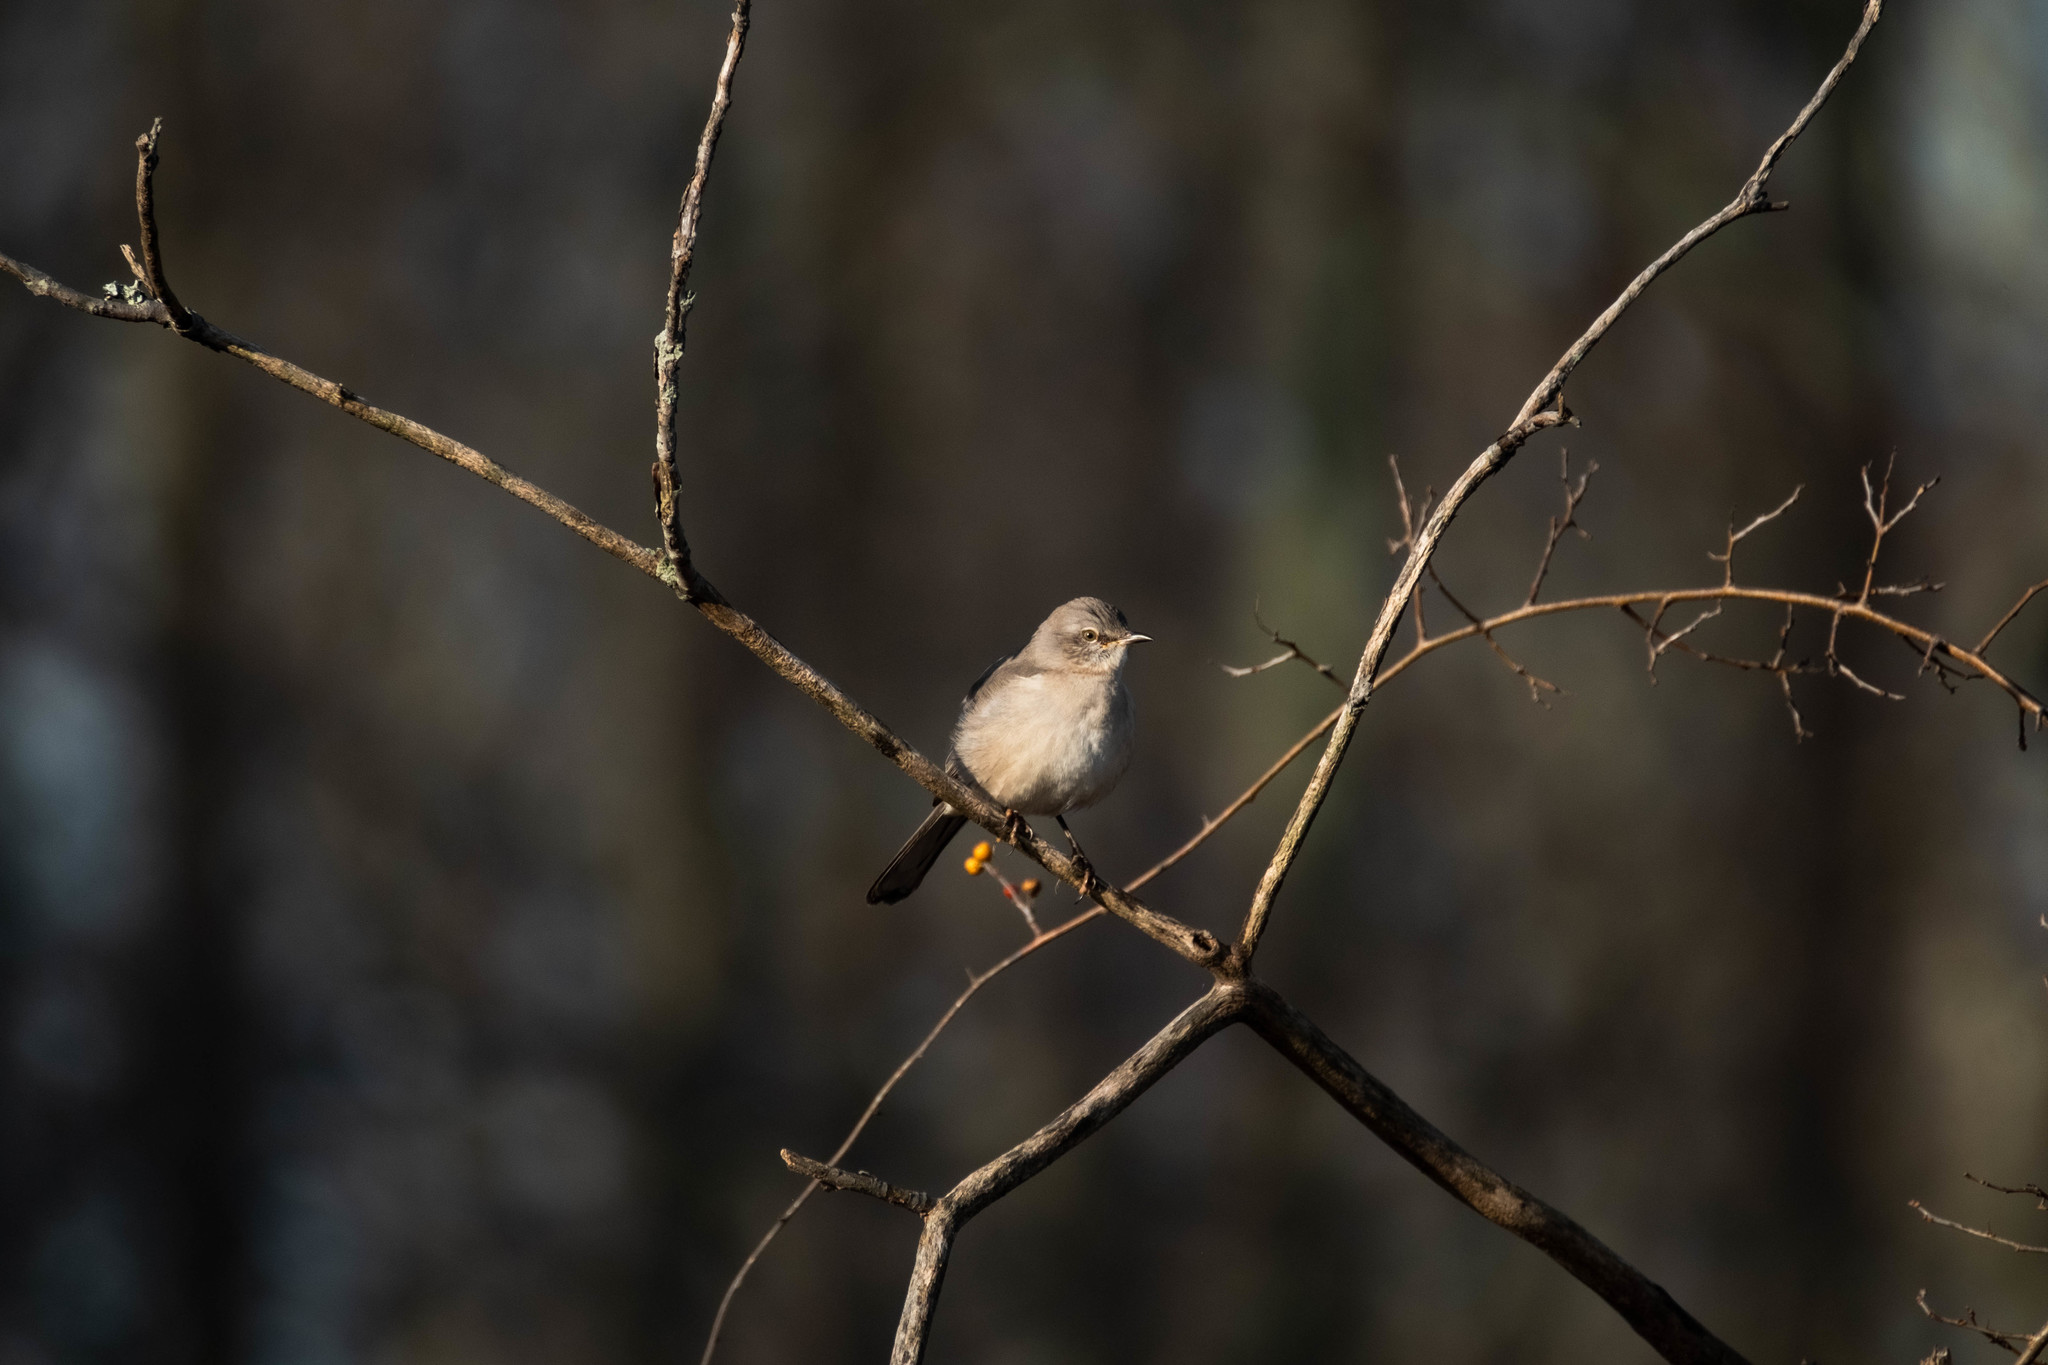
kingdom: Animalia
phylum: Chordata
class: Aves
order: Passeriformes
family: Mimidae
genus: Mimus
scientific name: Mimus polyglottos
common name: Northern mockingbird
